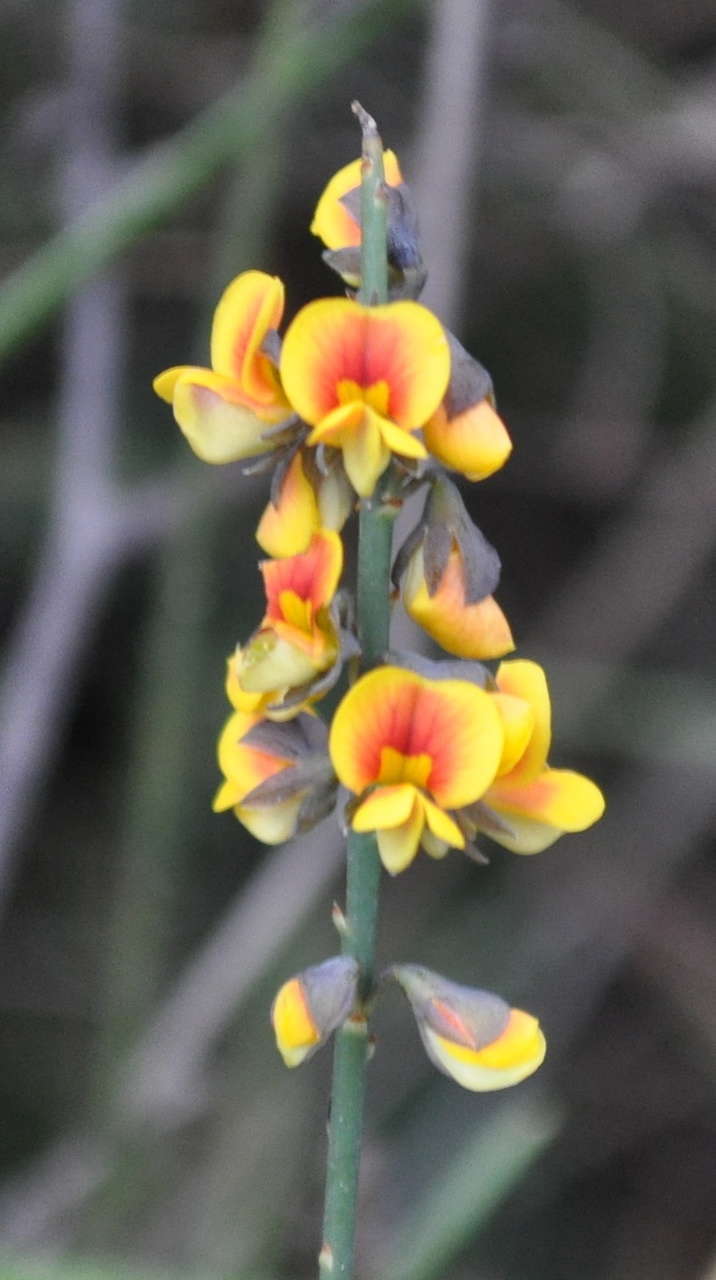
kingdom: Plantae
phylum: Tracheophyta
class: Magnoliopsida
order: Fabales
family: Fabaceae
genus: Sphaerolobium
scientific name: Sphaerolobium minus
